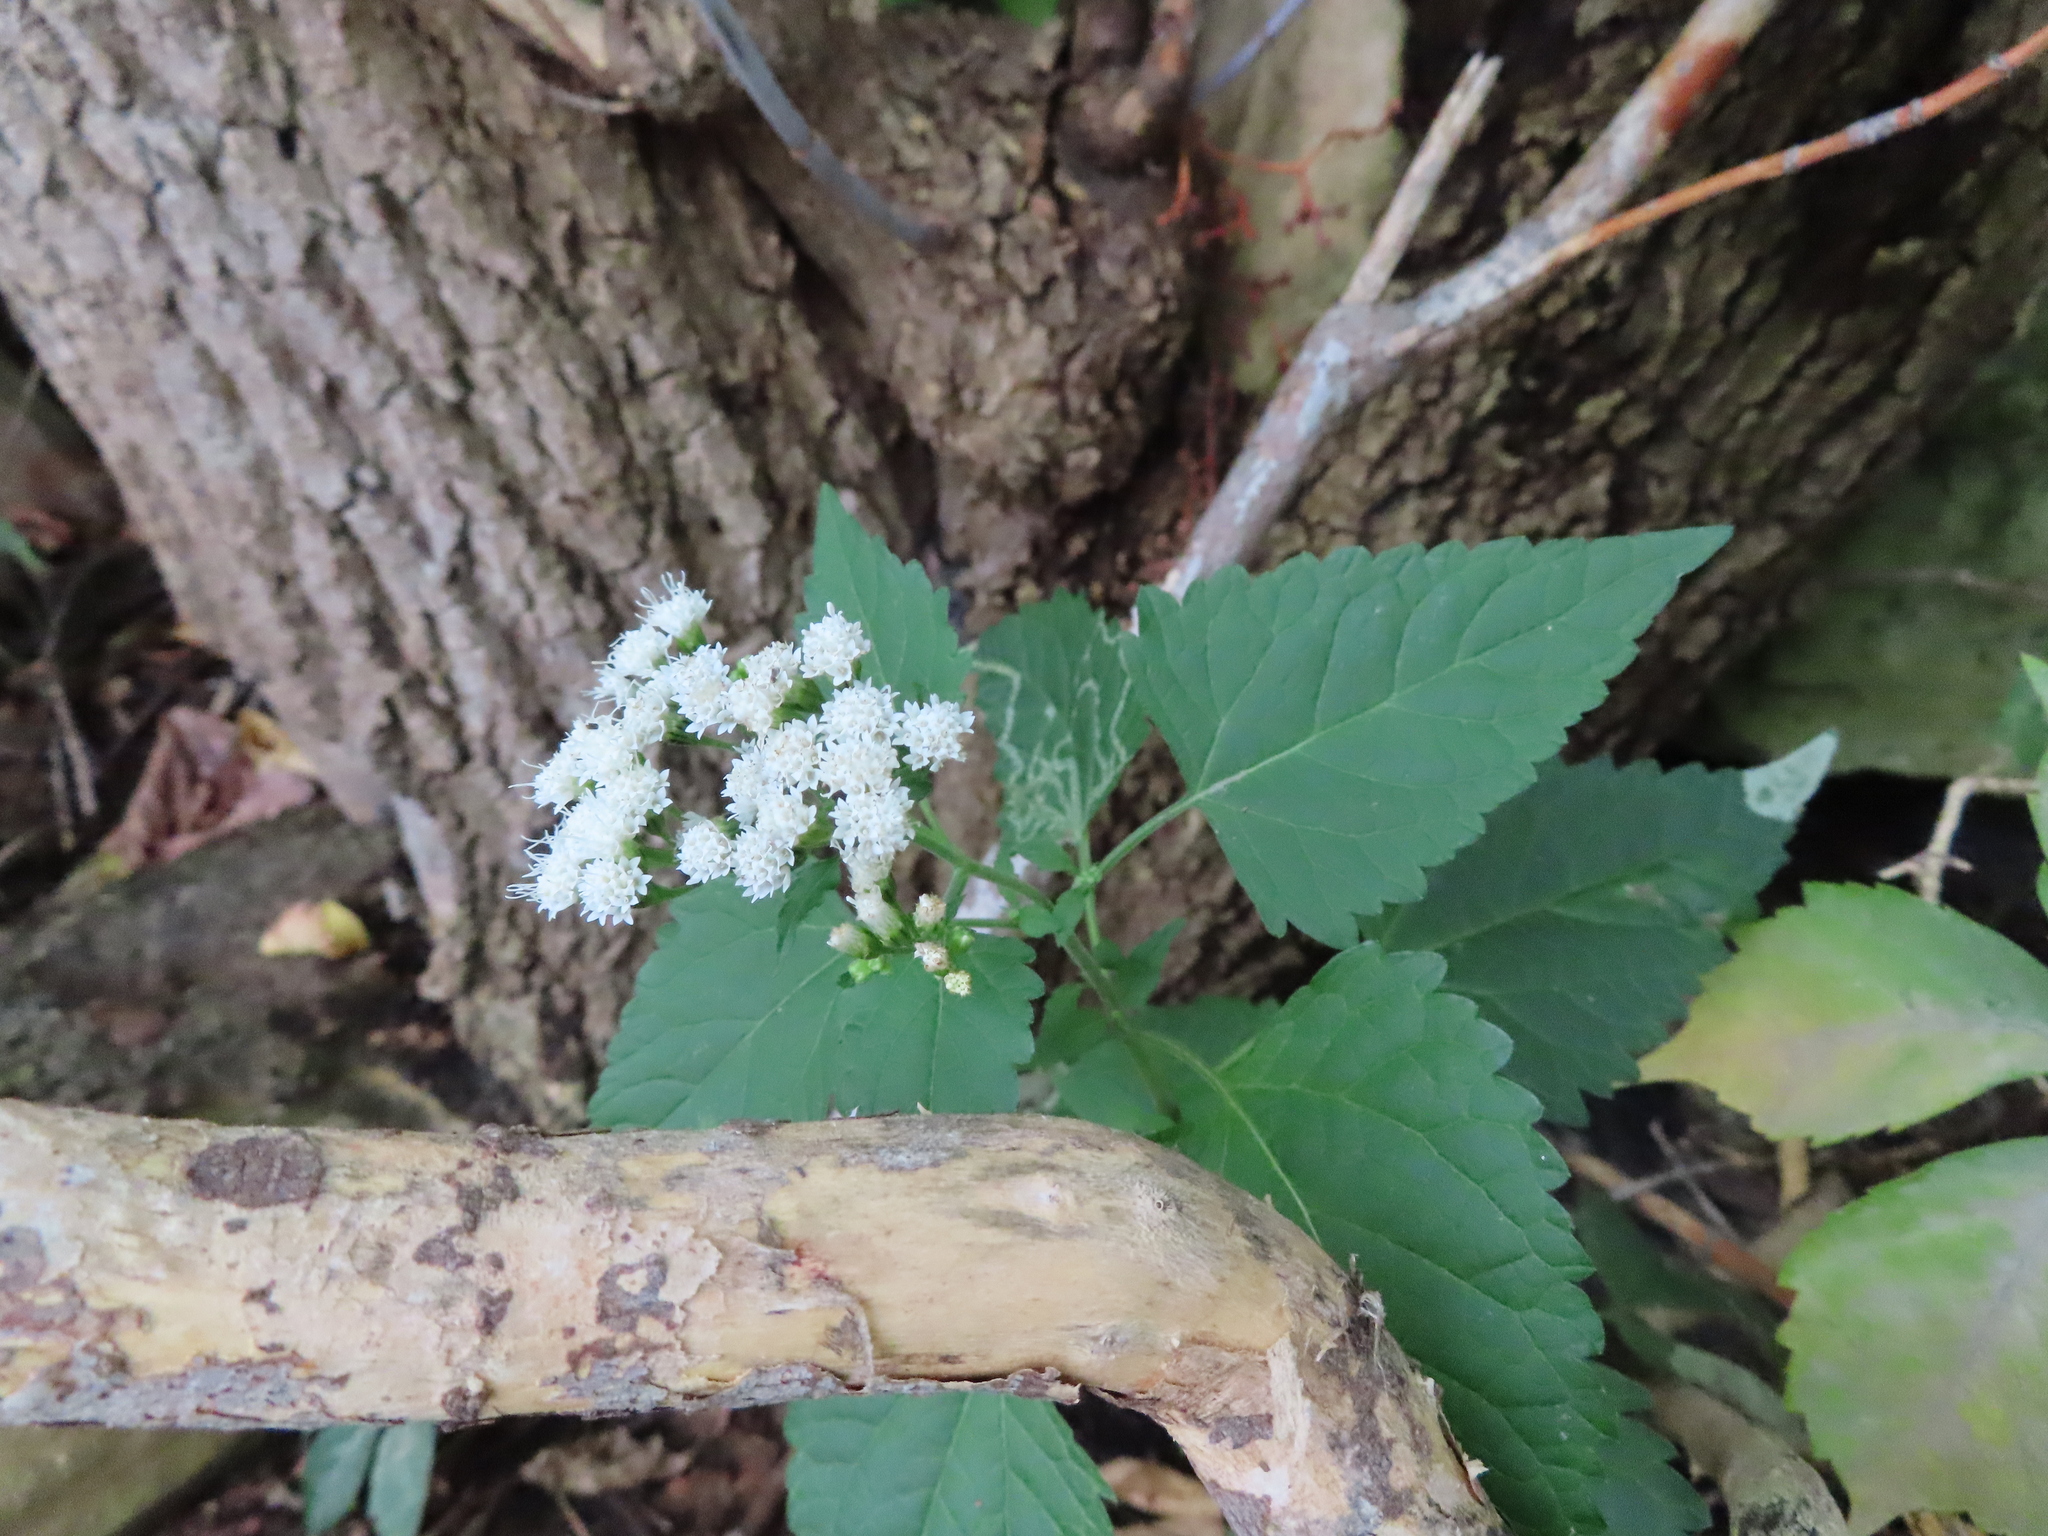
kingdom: Plantae
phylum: Tracheophyta
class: Magnoliopsida
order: Asterales
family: Asteraceae
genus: Ageratina
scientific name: Ageratina altissima
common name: White snakeroot
